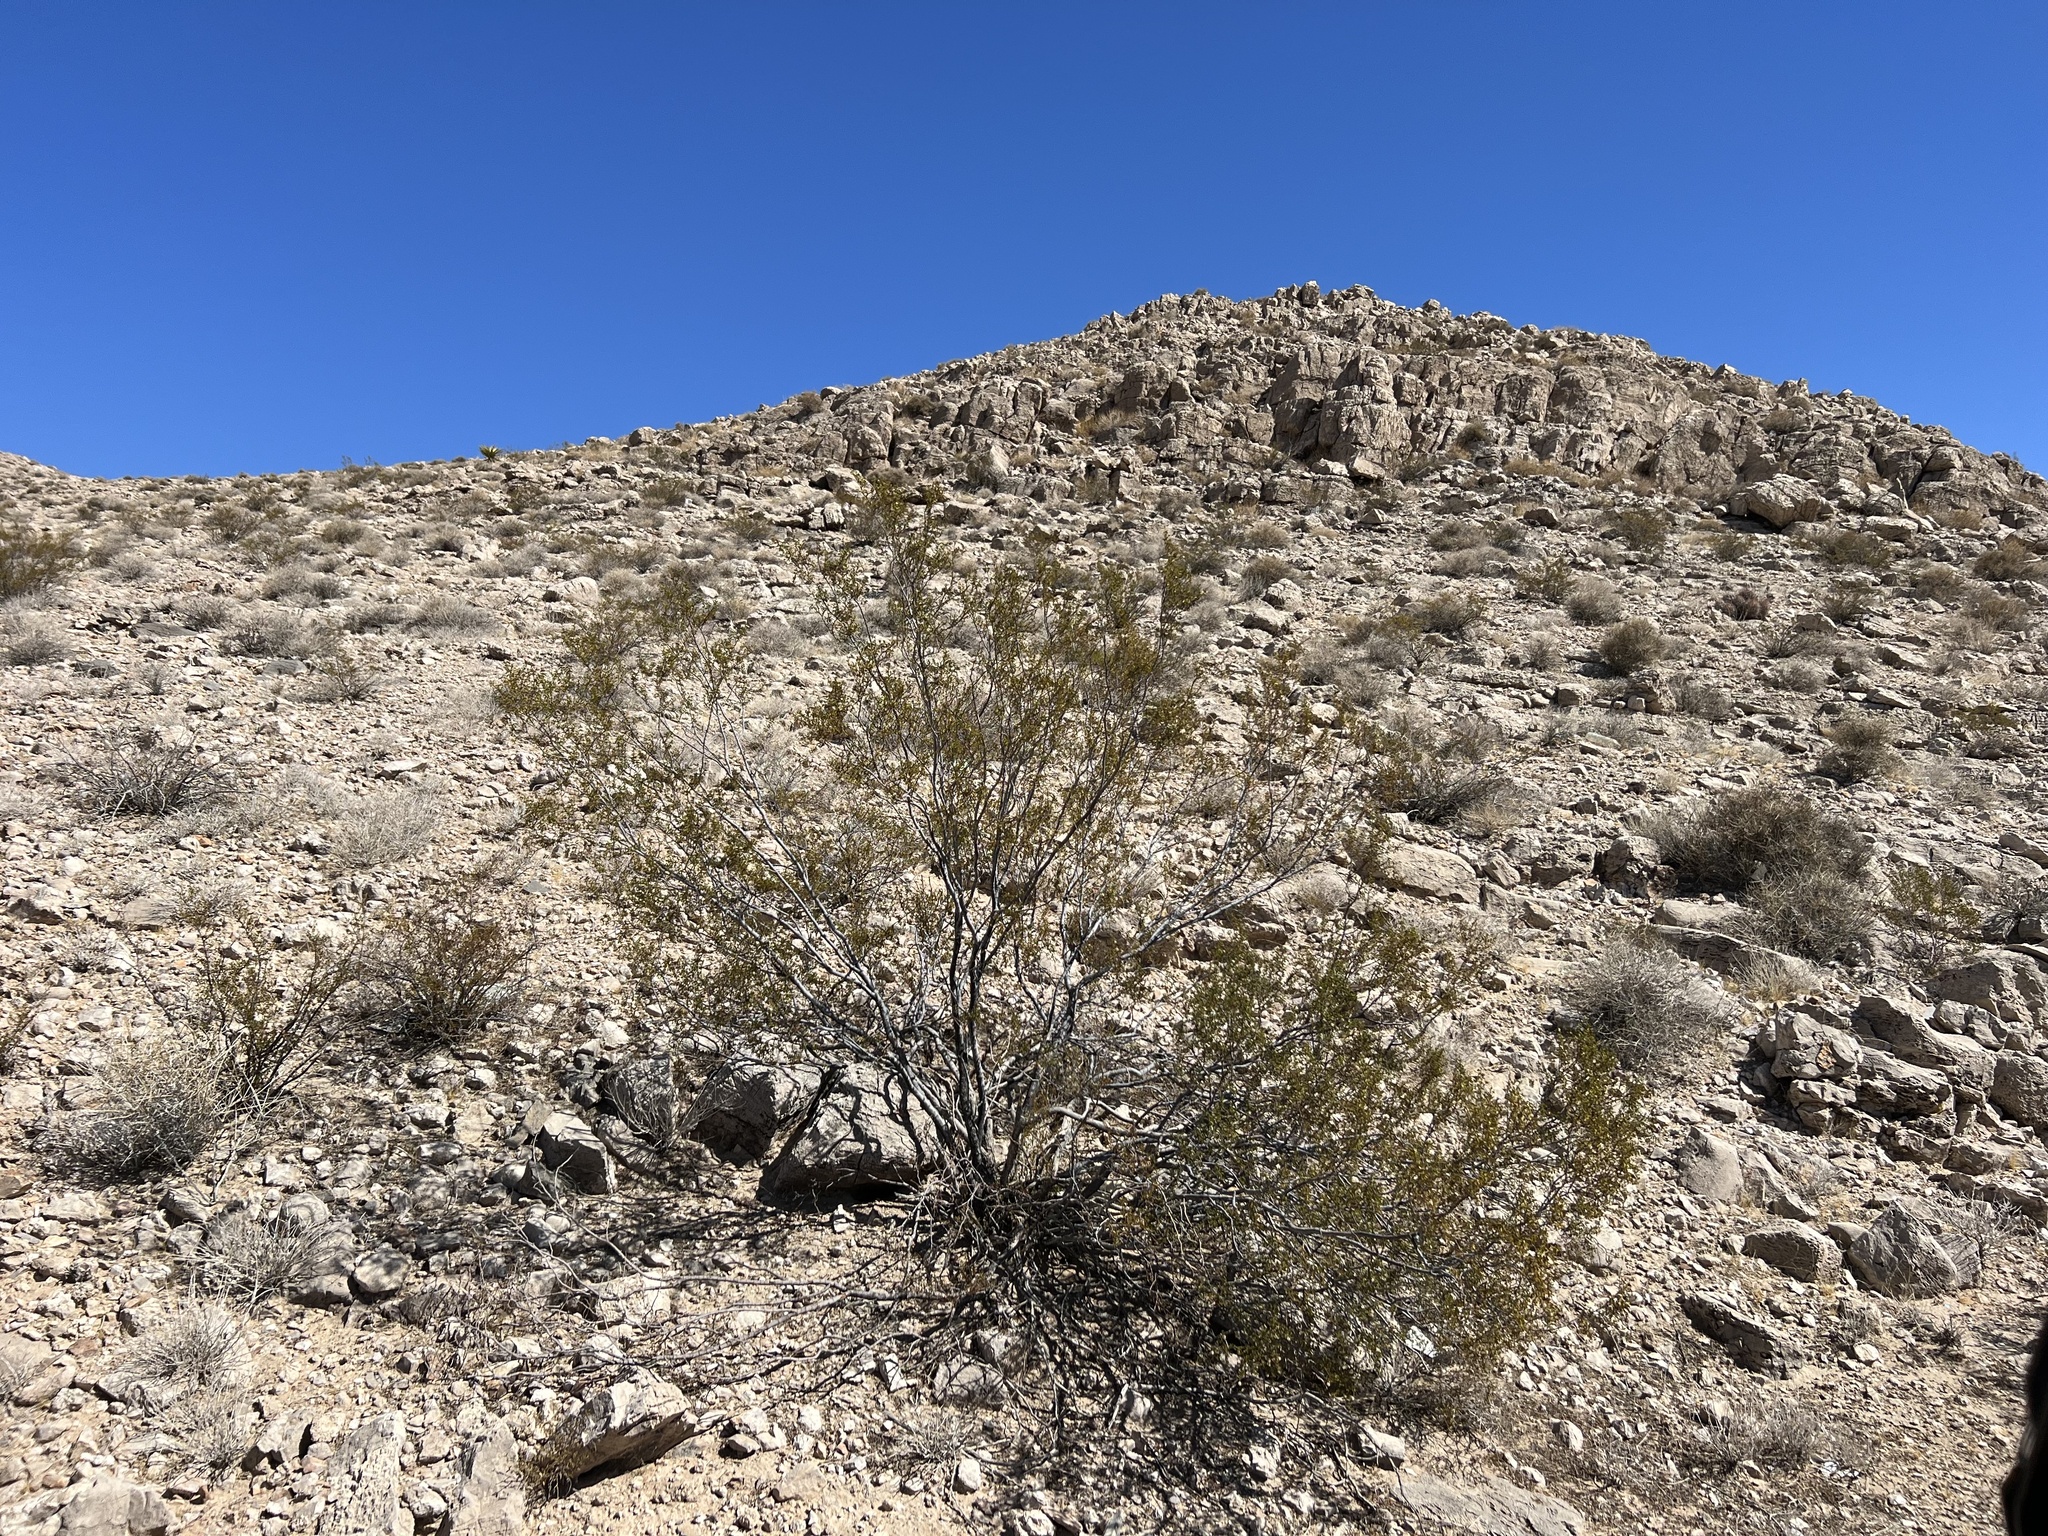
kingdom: Plantae
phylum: Tracheophyta
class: Magnoliopsida
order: Zygophyllales
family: Zygophyllaceae
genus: Larrea
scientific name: Larrea tridentata
